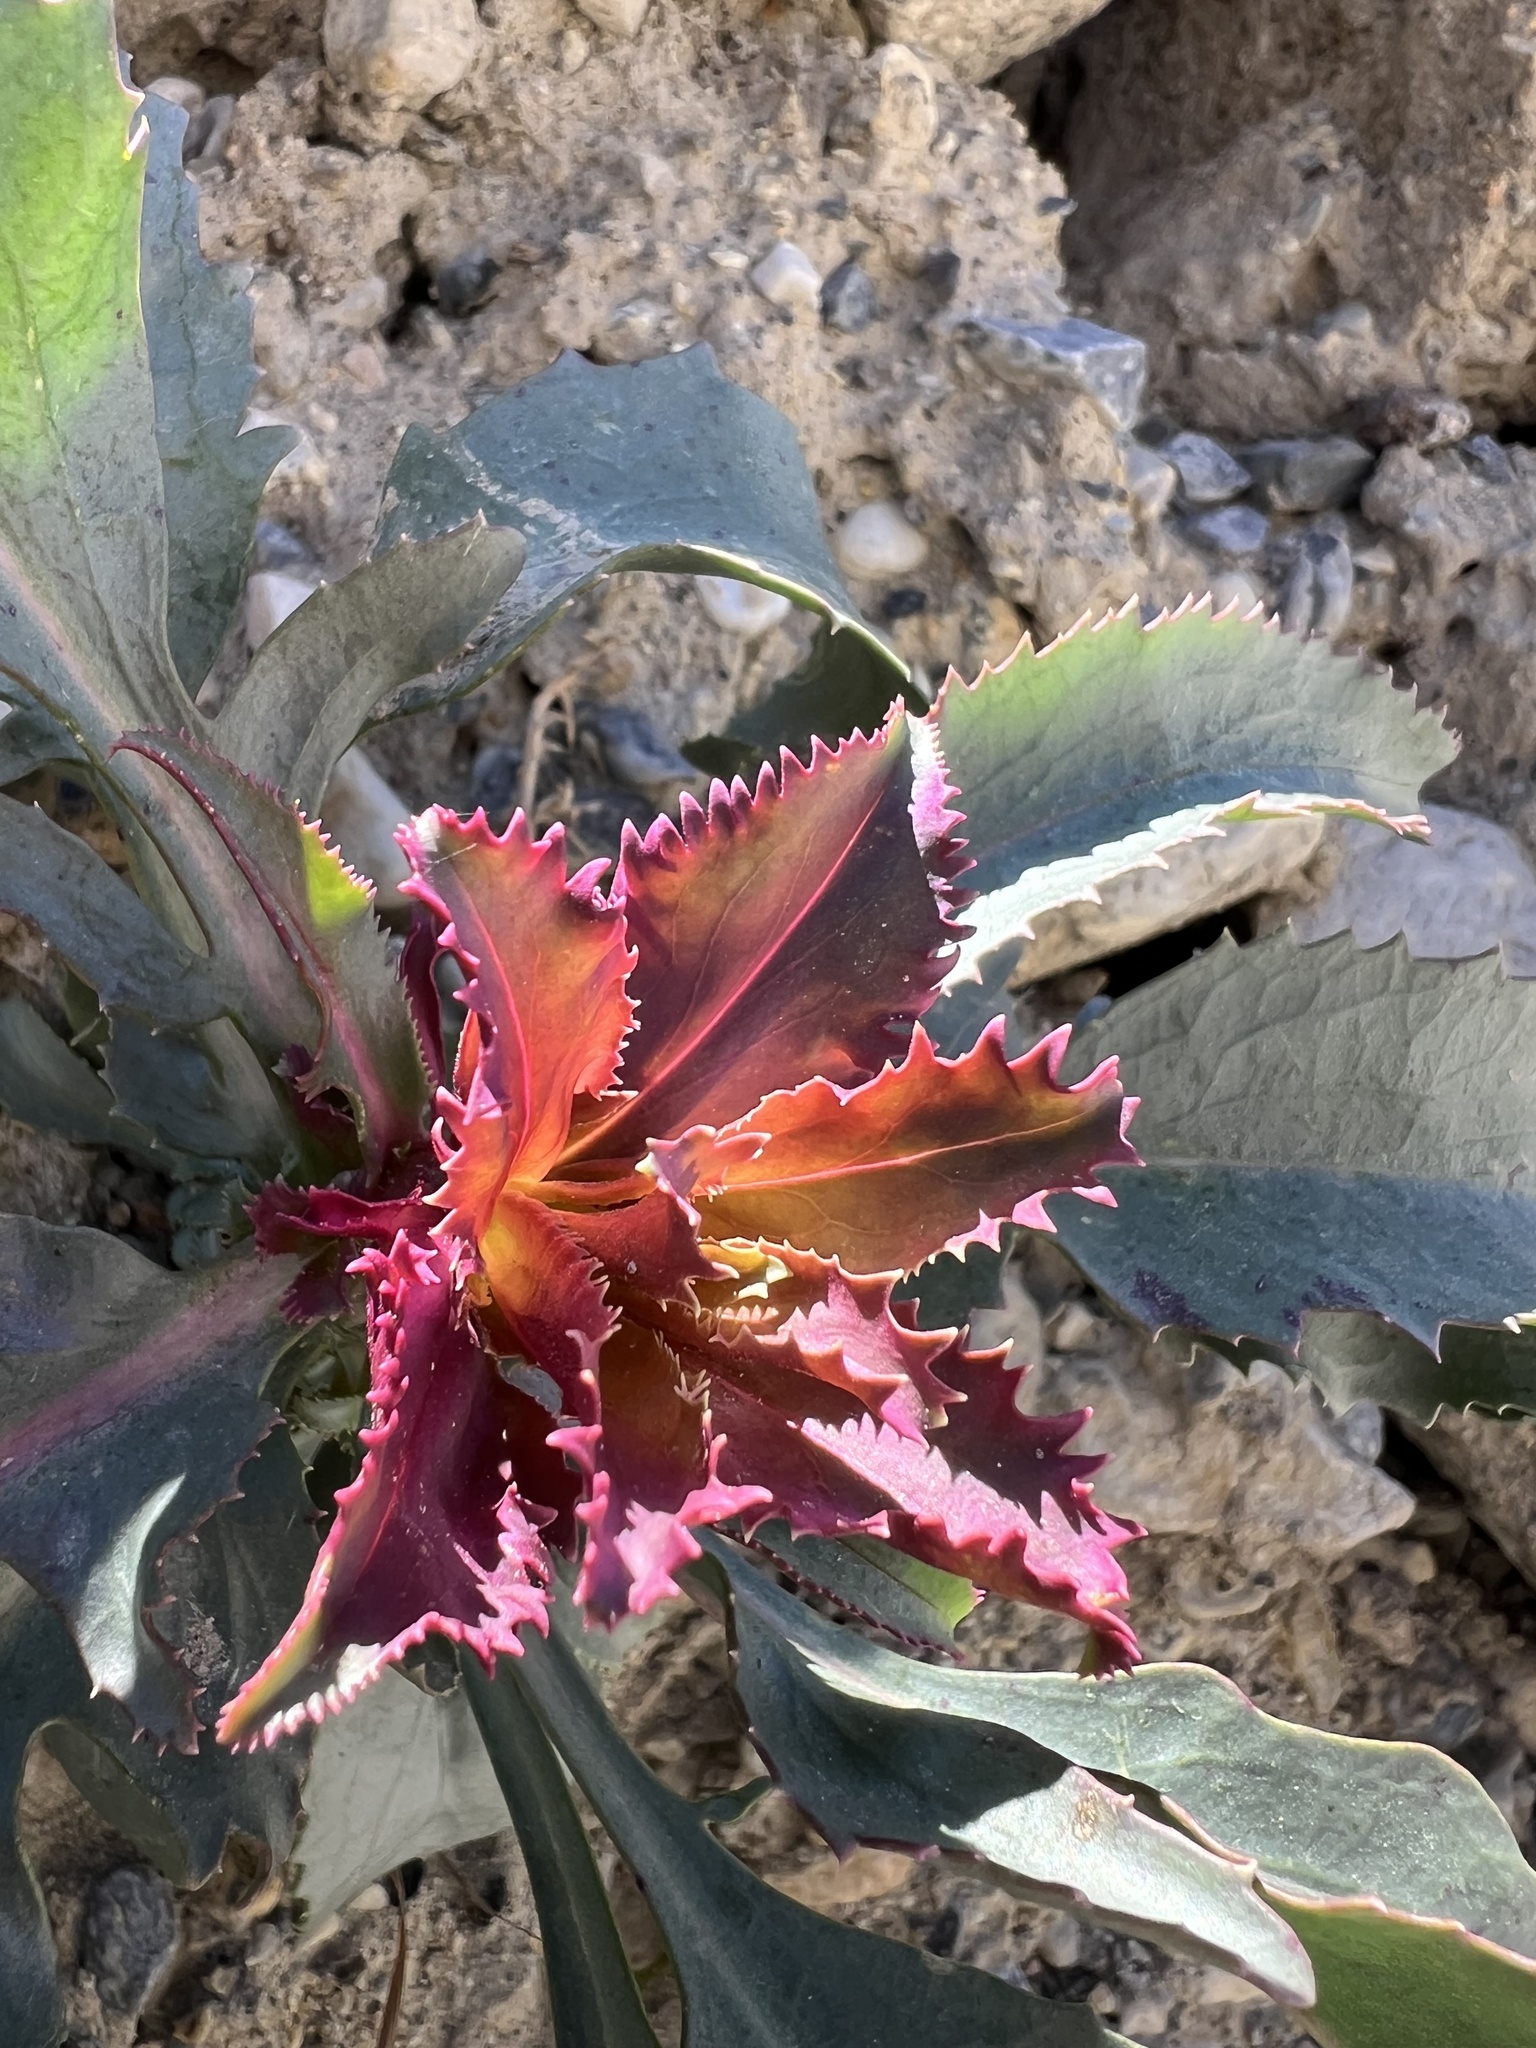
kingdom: Plantae
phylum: Tracheophyta
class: Magnoliopsida
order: Lamiales
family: Plantaginaceae
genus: Penstemon
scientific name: Penstemon floridus
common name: Panamint penstemon
